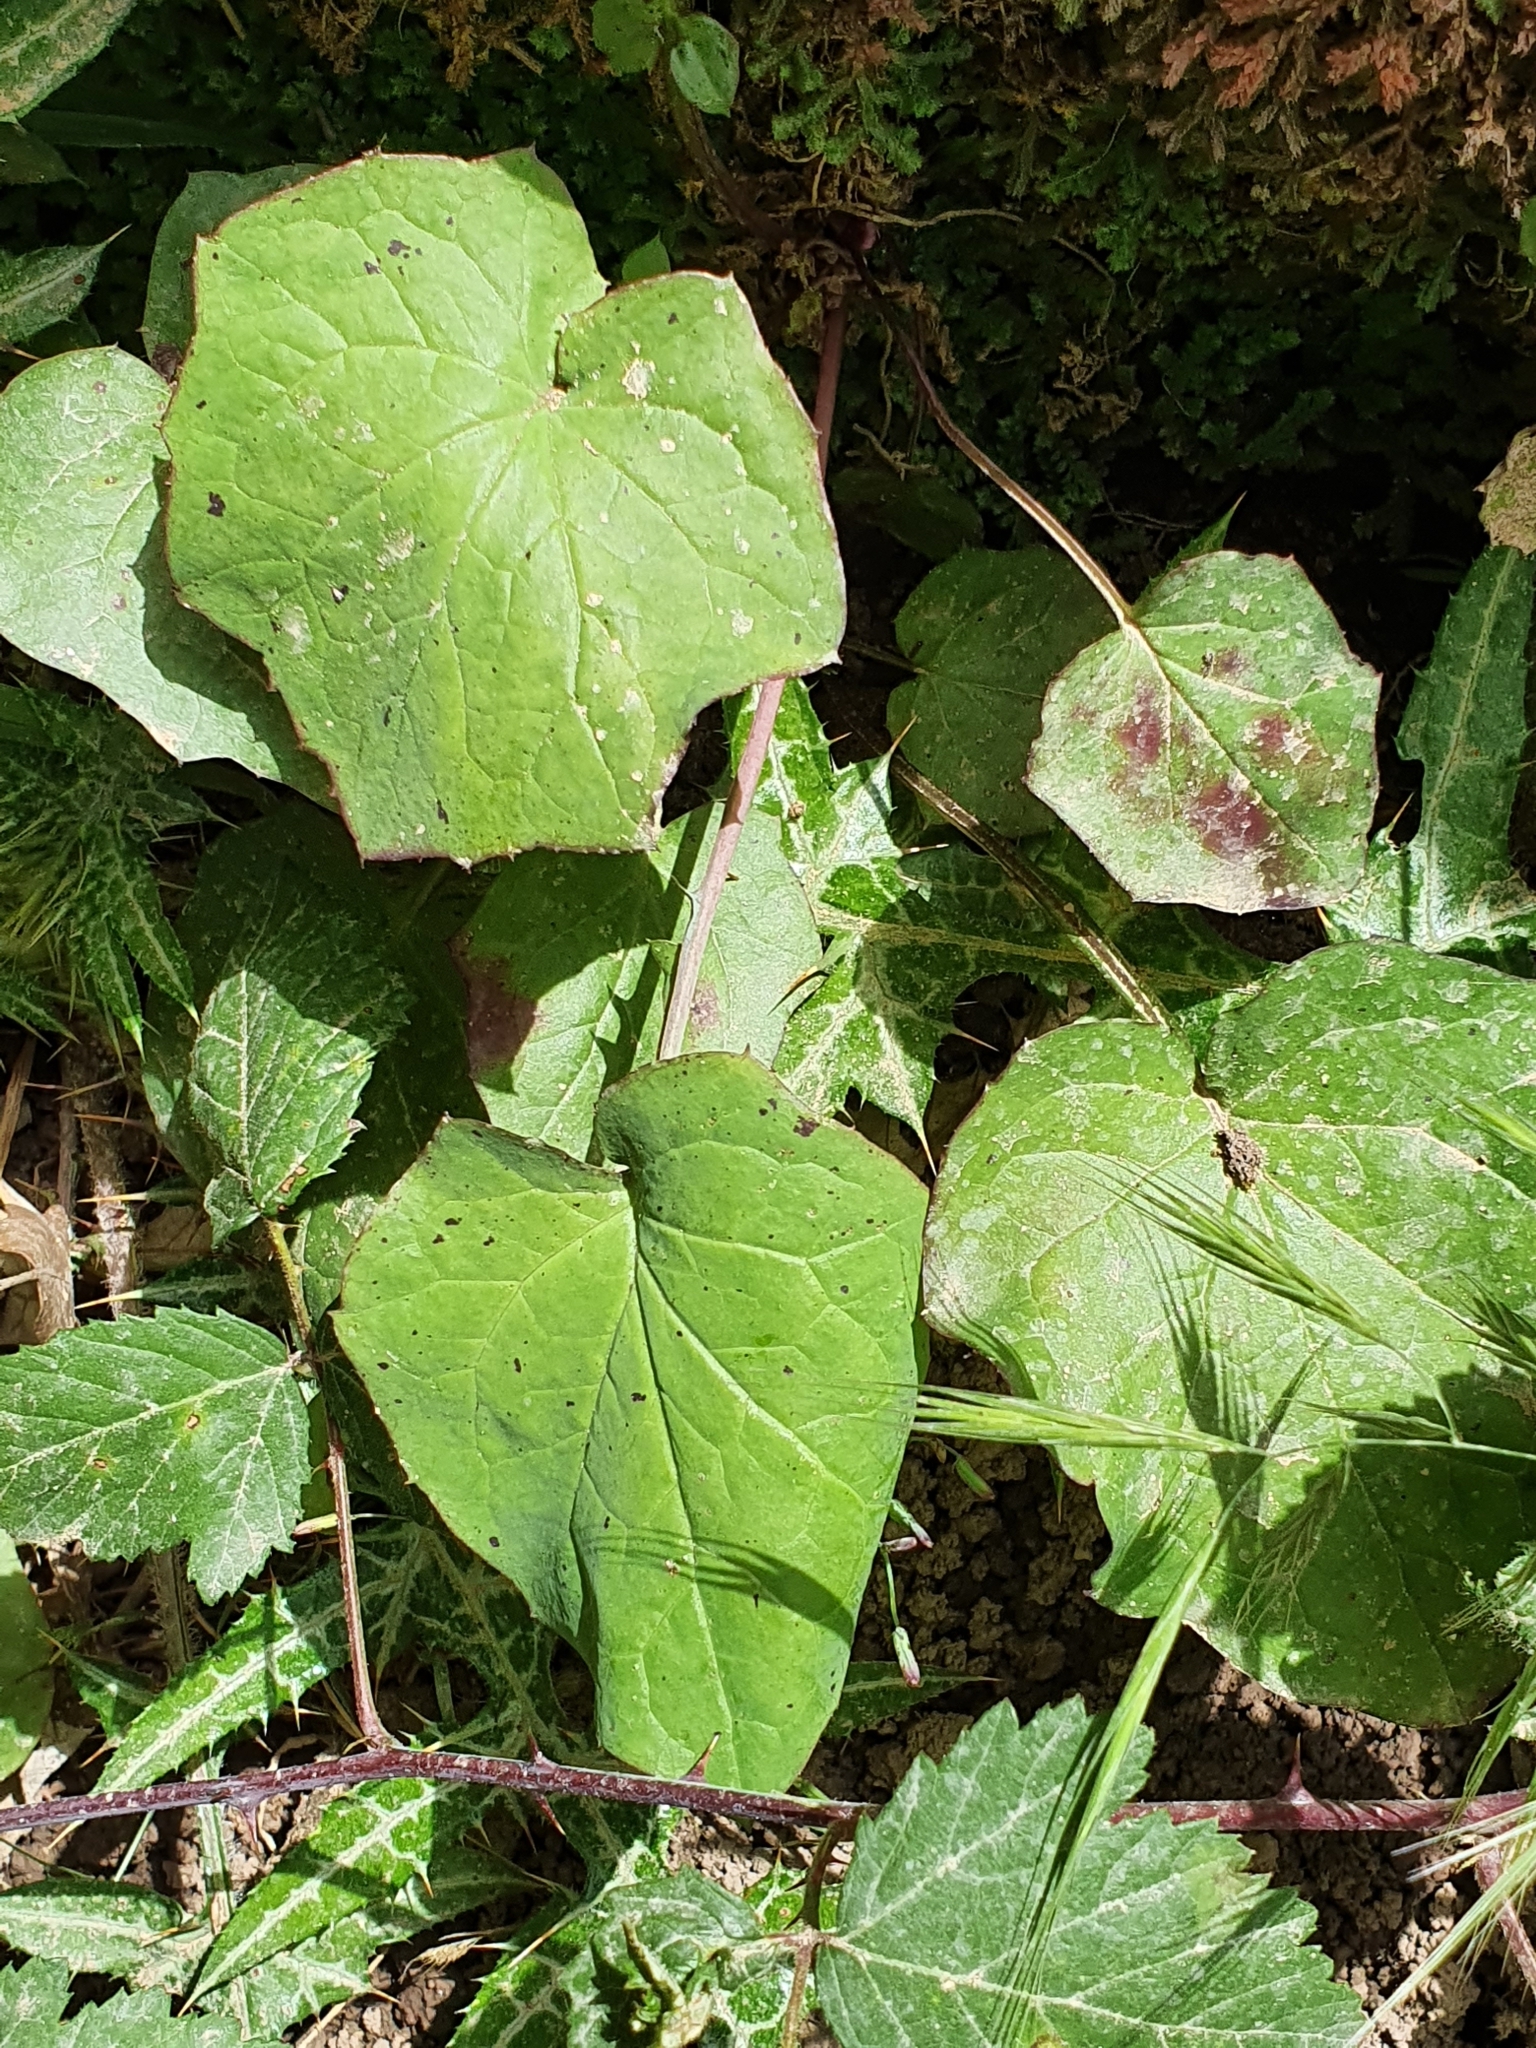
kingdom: Plantae
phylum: Tracheophyta
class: Magnoliopsida
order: Asterales
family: Asteraceae
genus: Tussilago
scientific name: Tussilago farfara
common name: Coltsfoot
